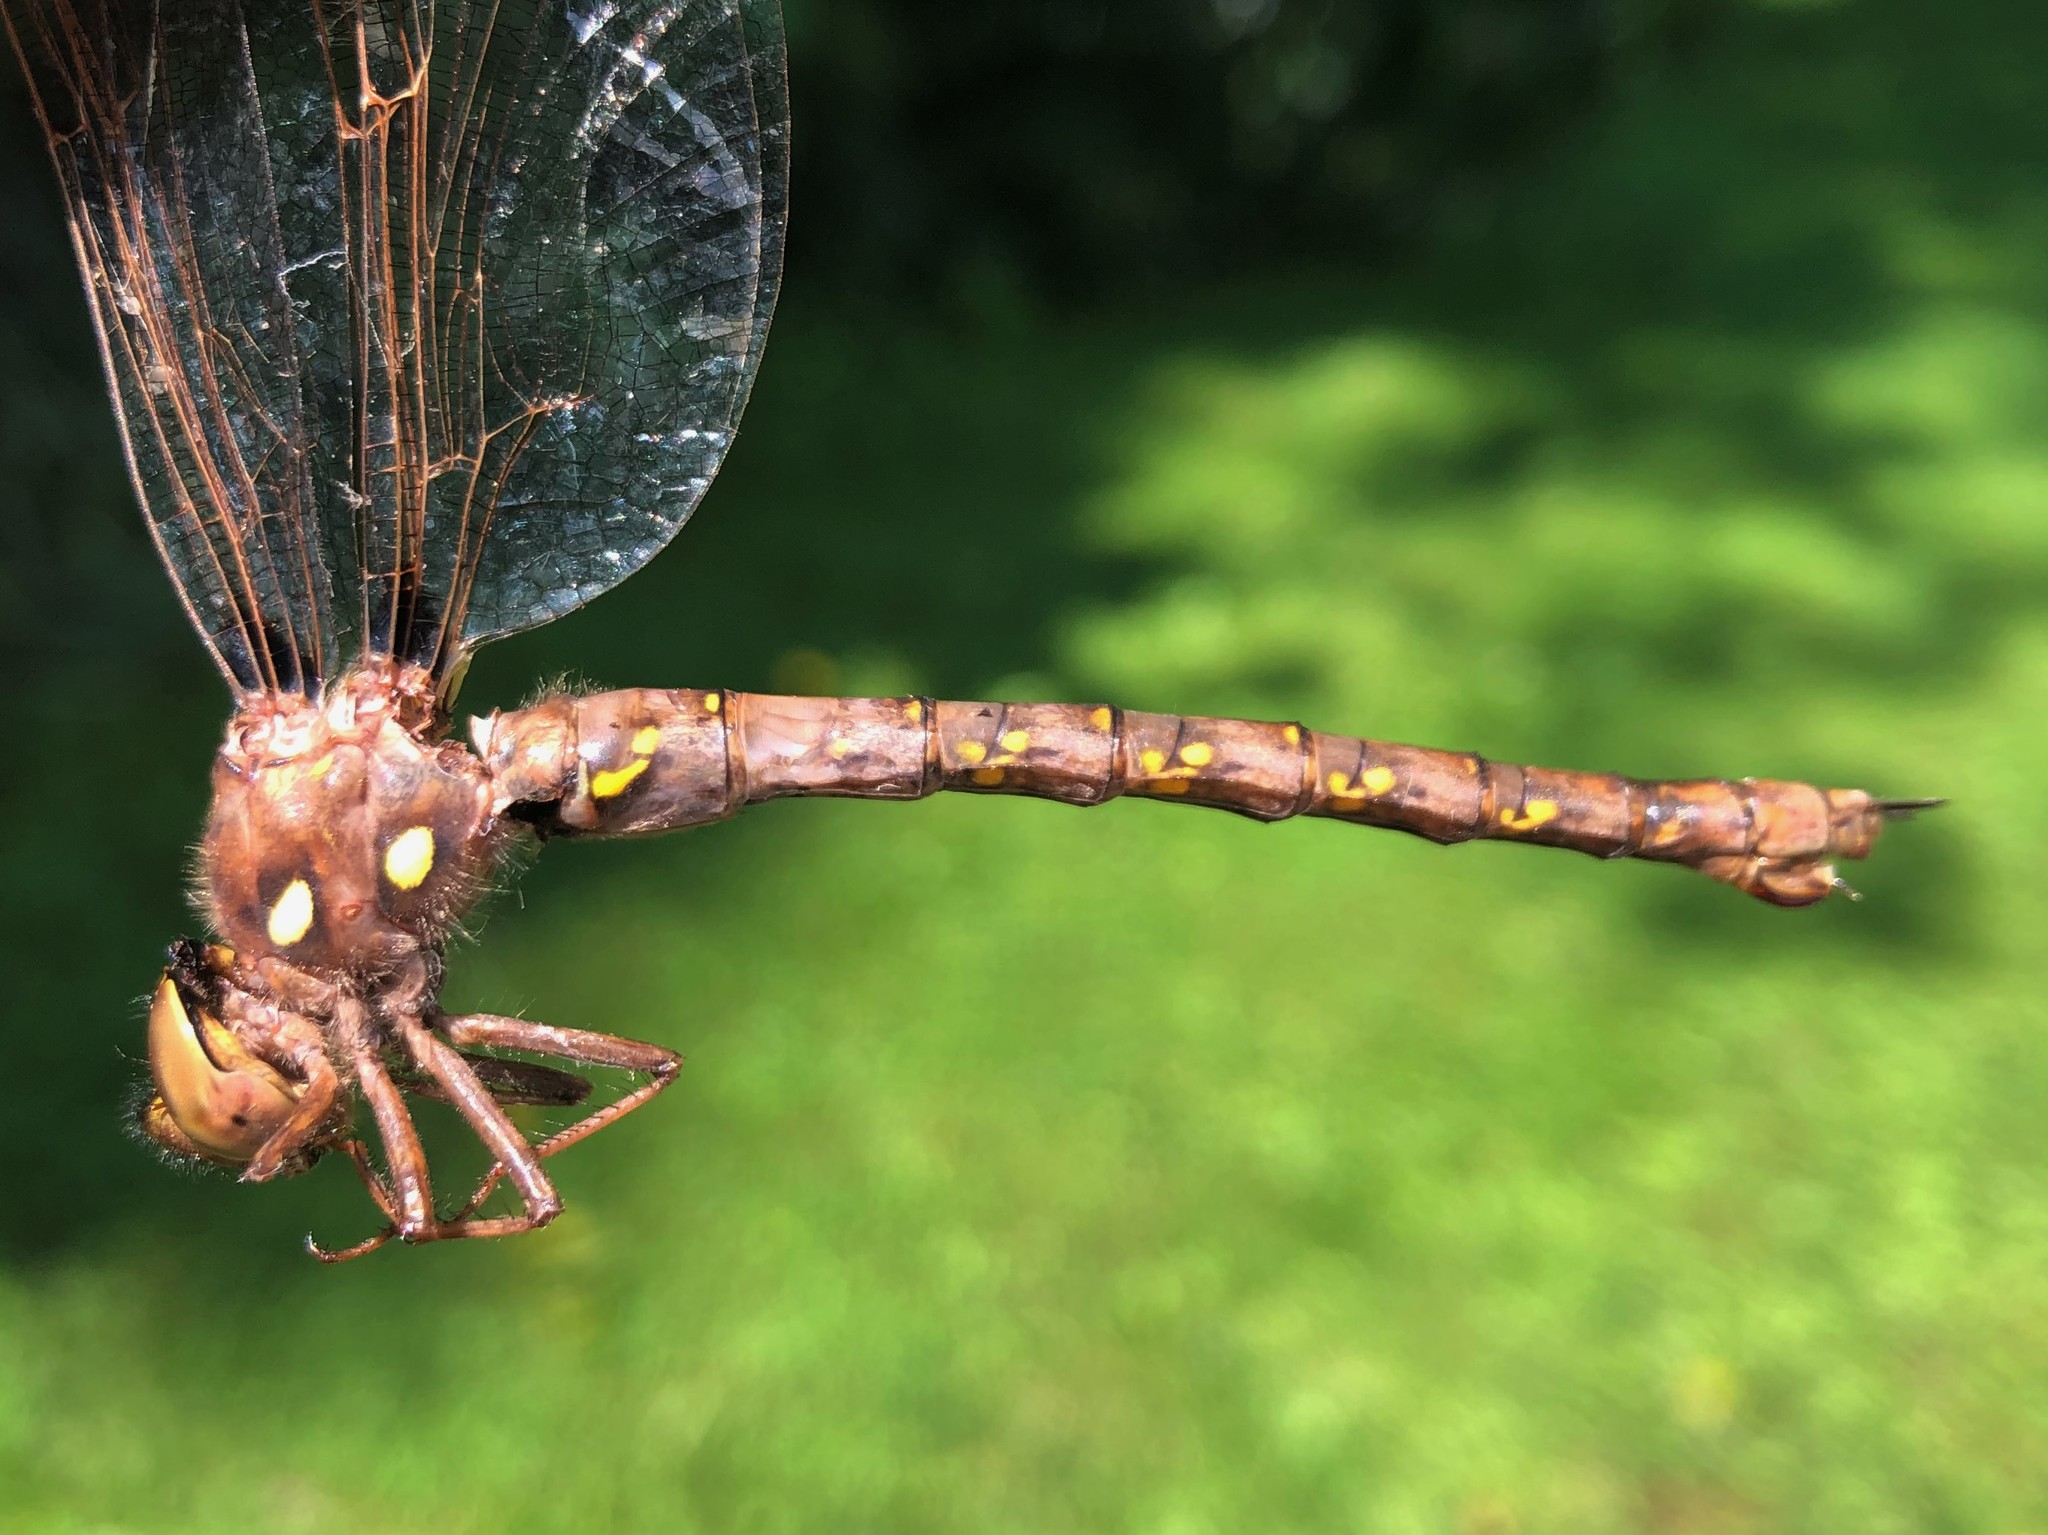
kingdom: Animalia
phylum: Arthropoda
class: Insecta
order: Odonata
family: Aeshnidae
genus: Boyeria
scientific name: Boyeria vinosa
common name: Fawn darner
